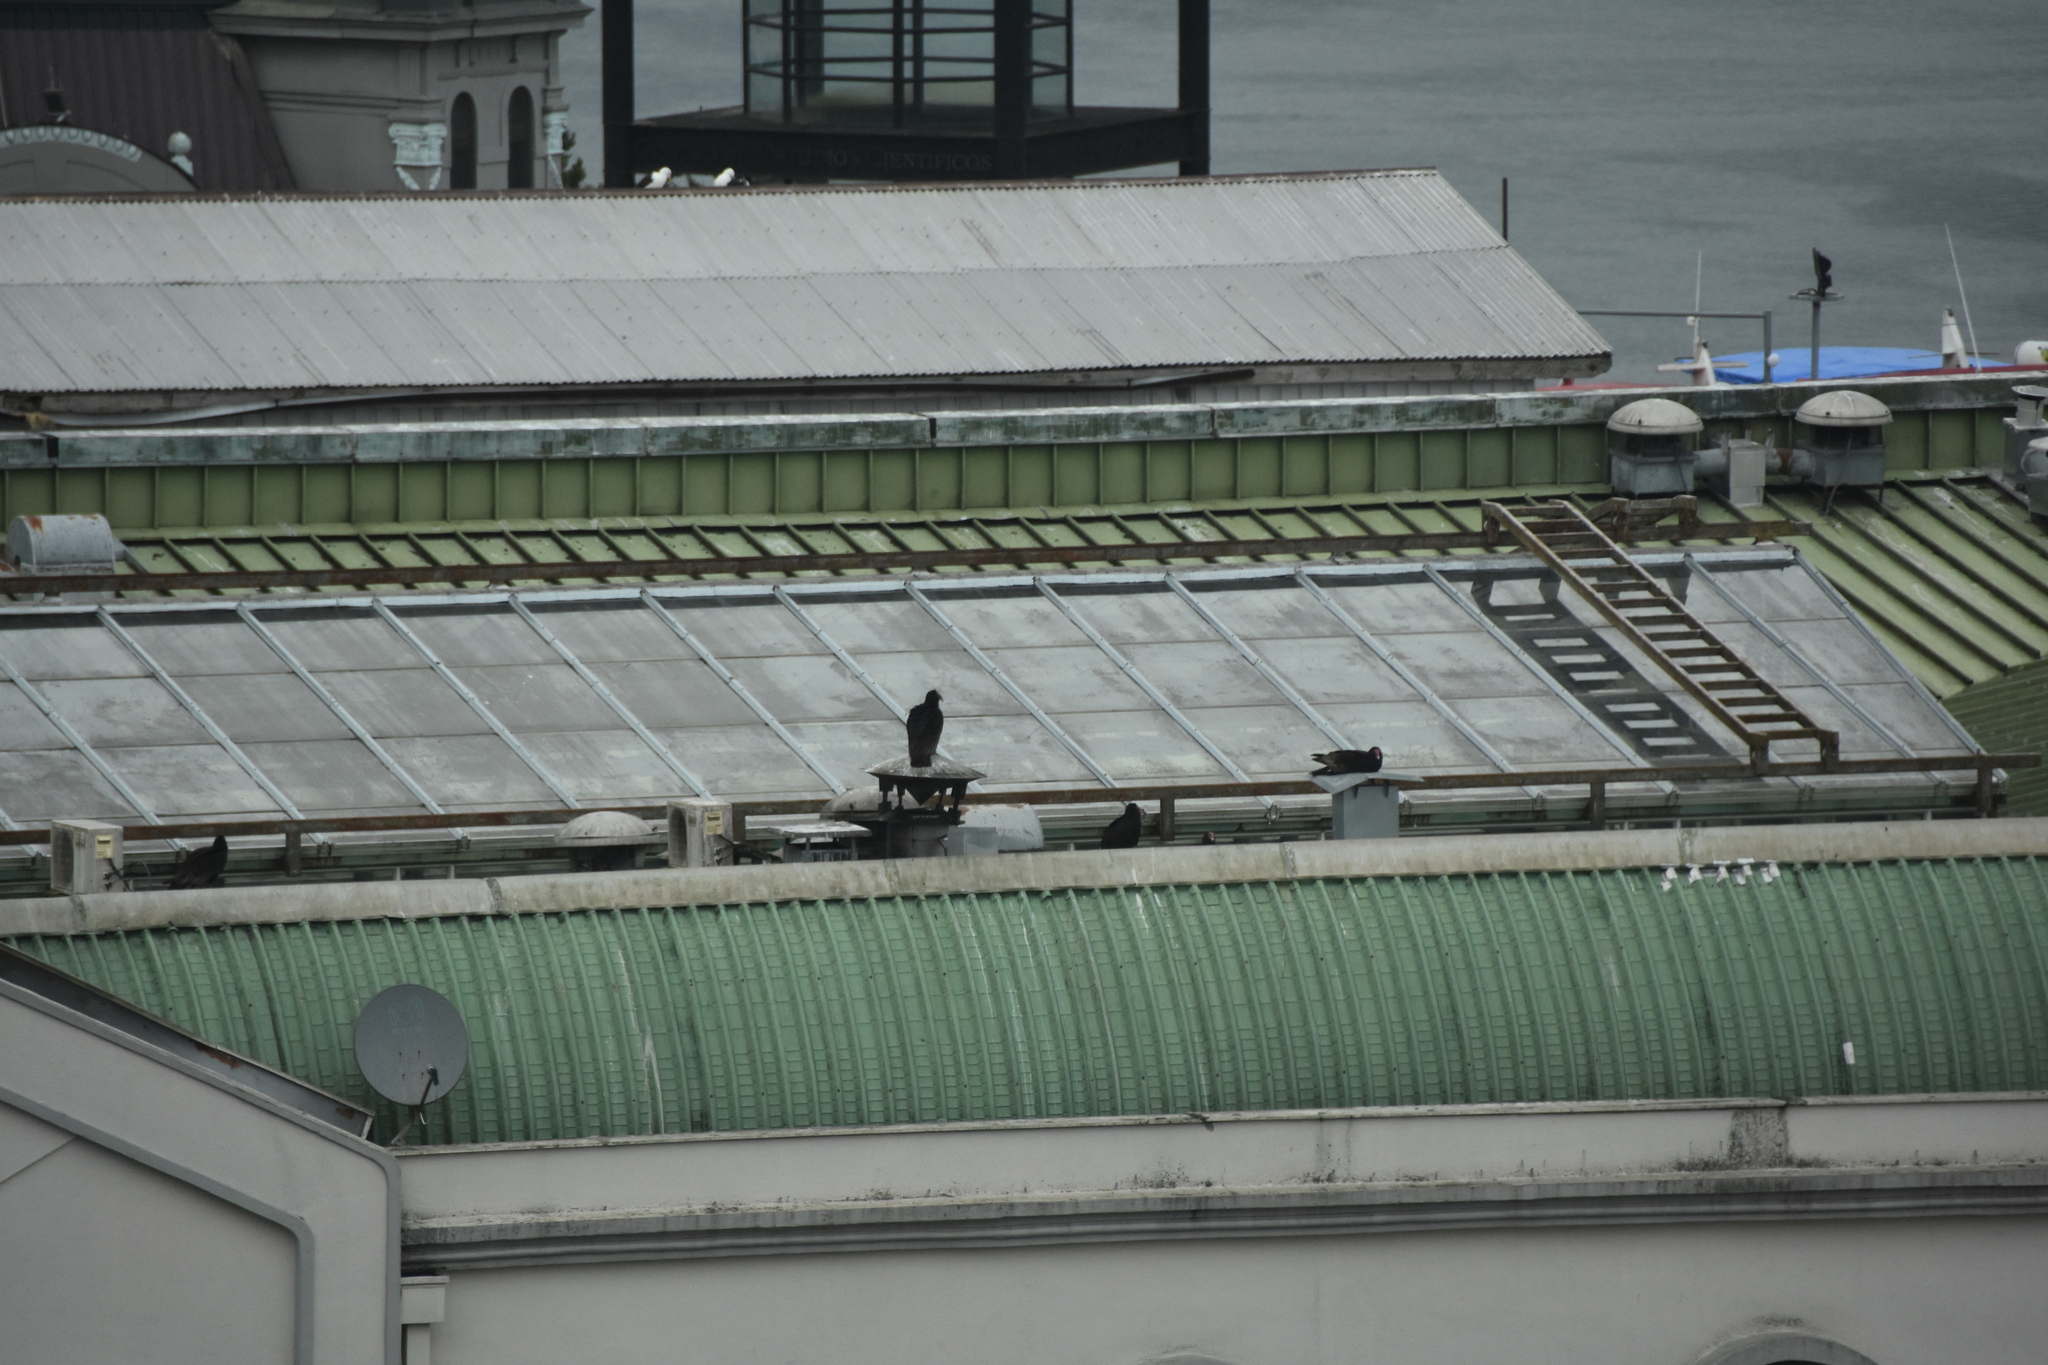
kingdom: Animalia
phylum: Chordata
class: Aves
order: Accipitriformes
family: Cathartidae
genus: Cathartes
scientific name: Cathartes aura
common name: Turkey vulture
